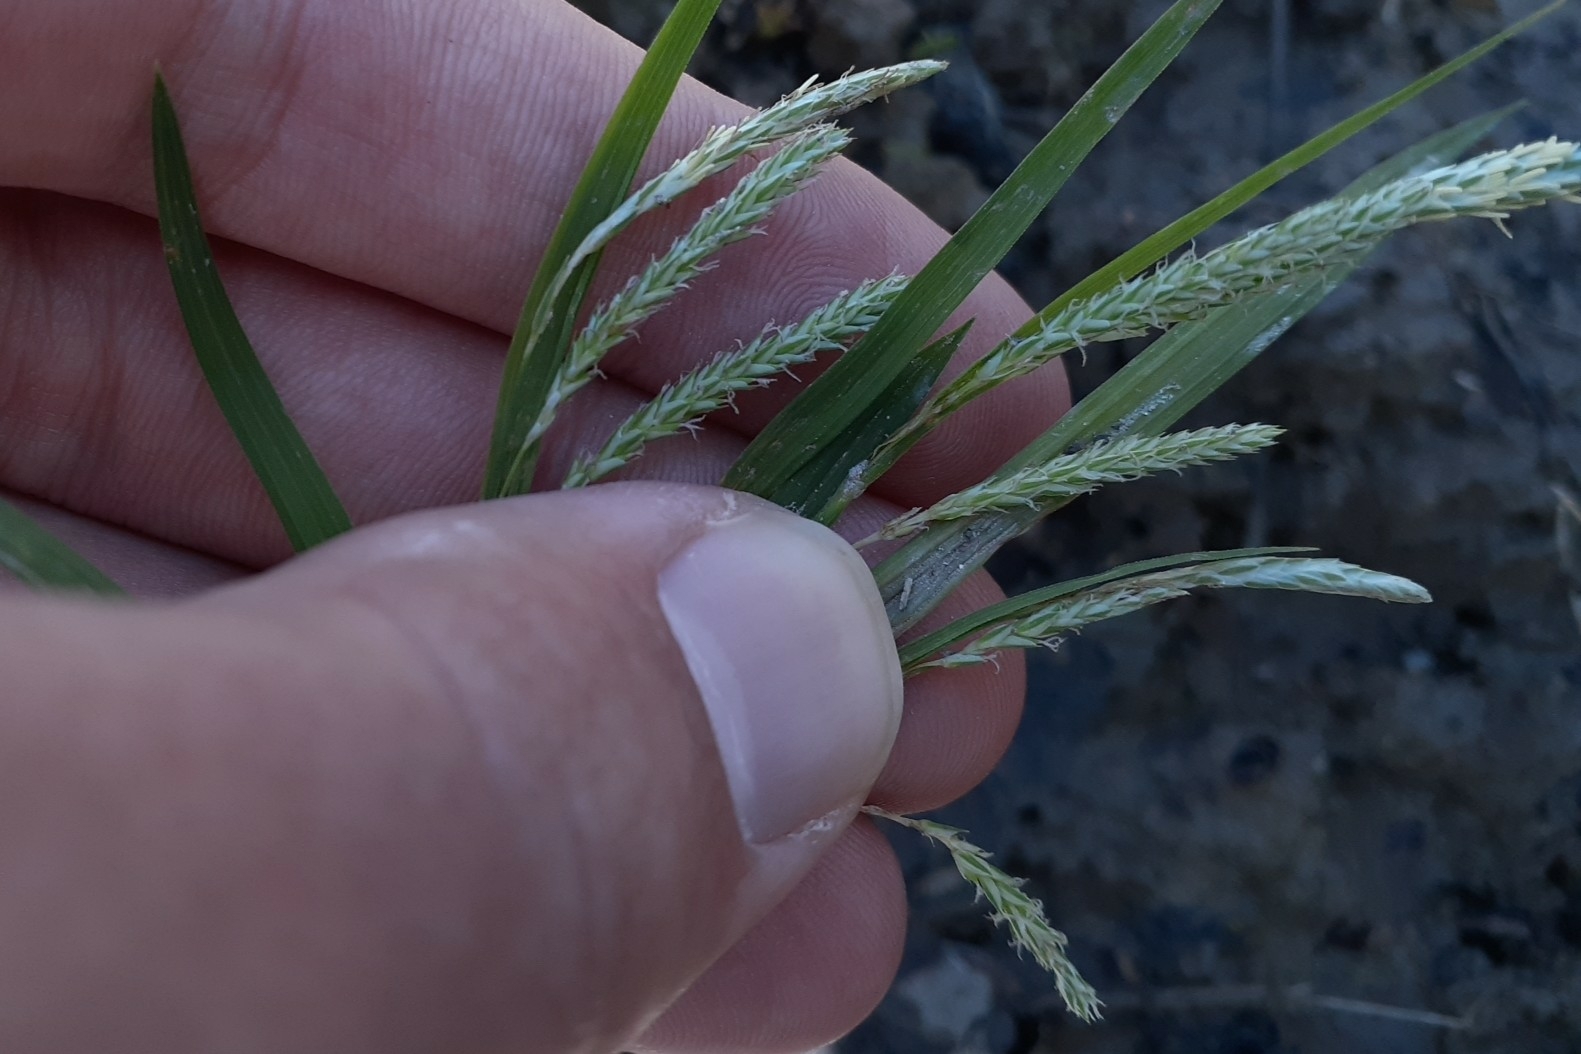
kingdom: Plantae
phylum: Tracheophyta
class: Liliopsida
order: Poales
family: Cyperaceae
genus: Carex
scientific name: Carex prasina
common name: Drooping sedge
